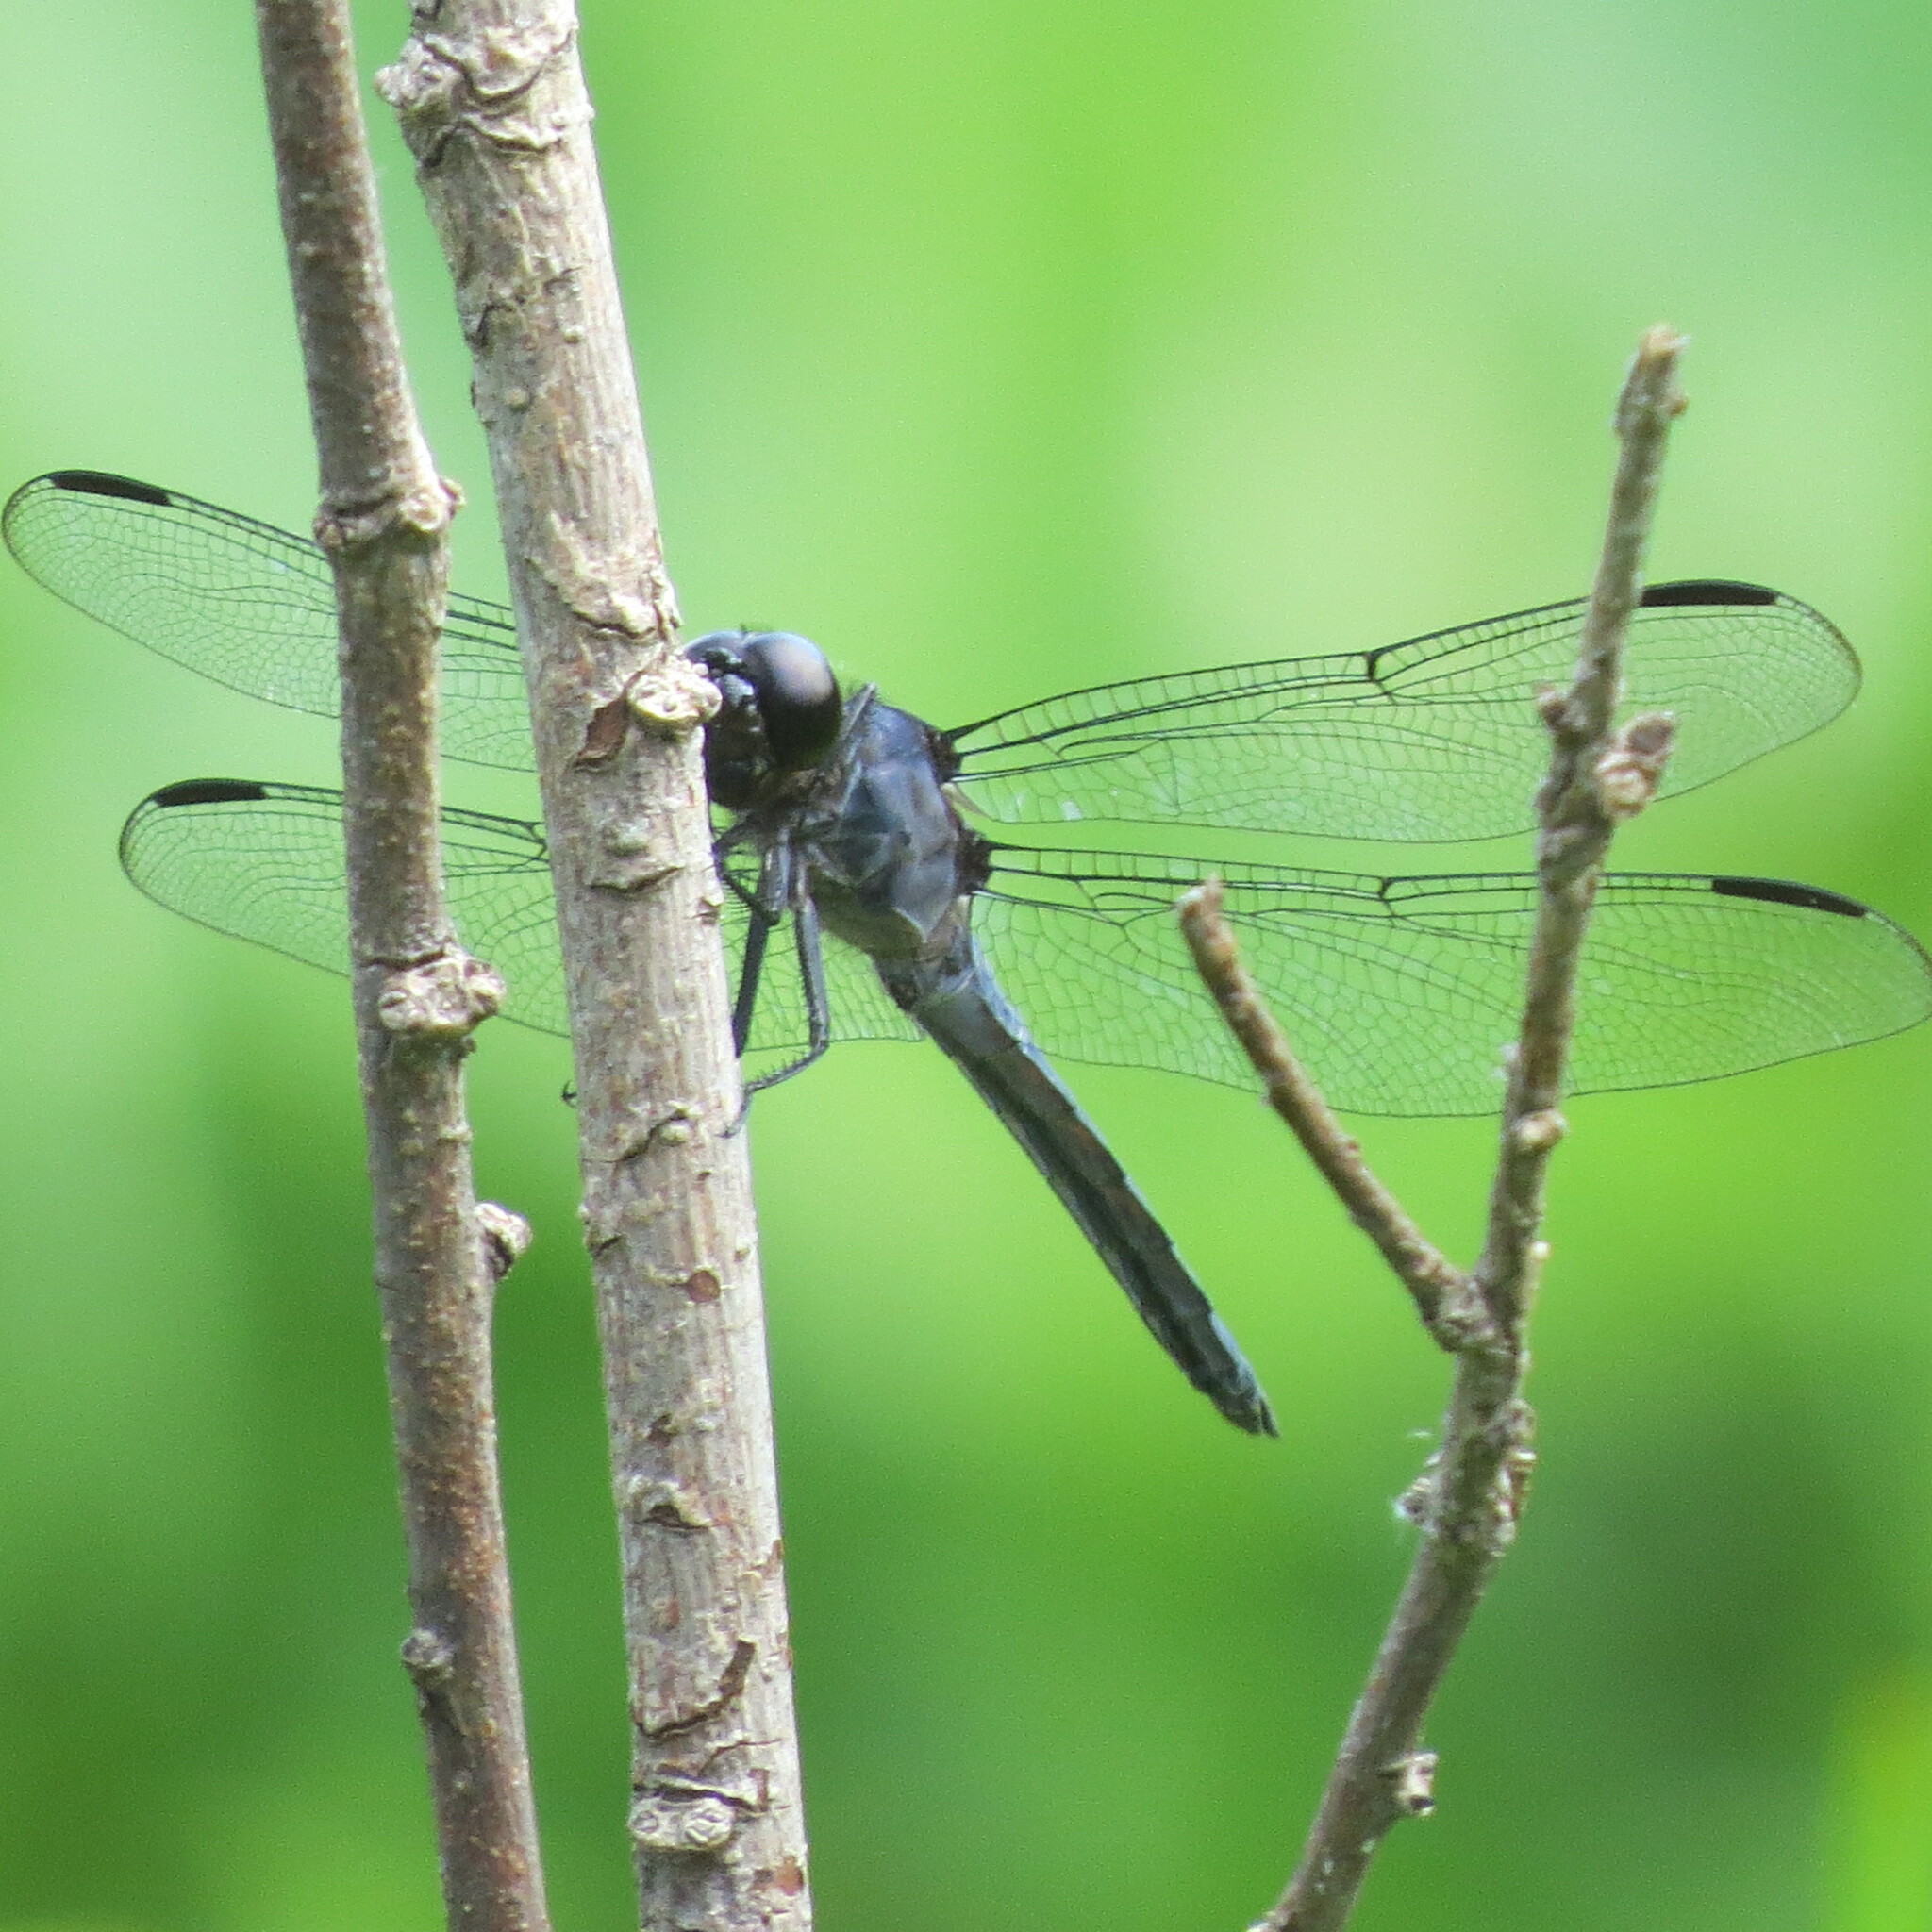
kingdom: Animalia
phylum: Arthropoda
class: Insecta
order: Odonata
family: Libellulidae
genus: Libellula
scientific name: Libellula incesta
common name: Slaty skimmer
